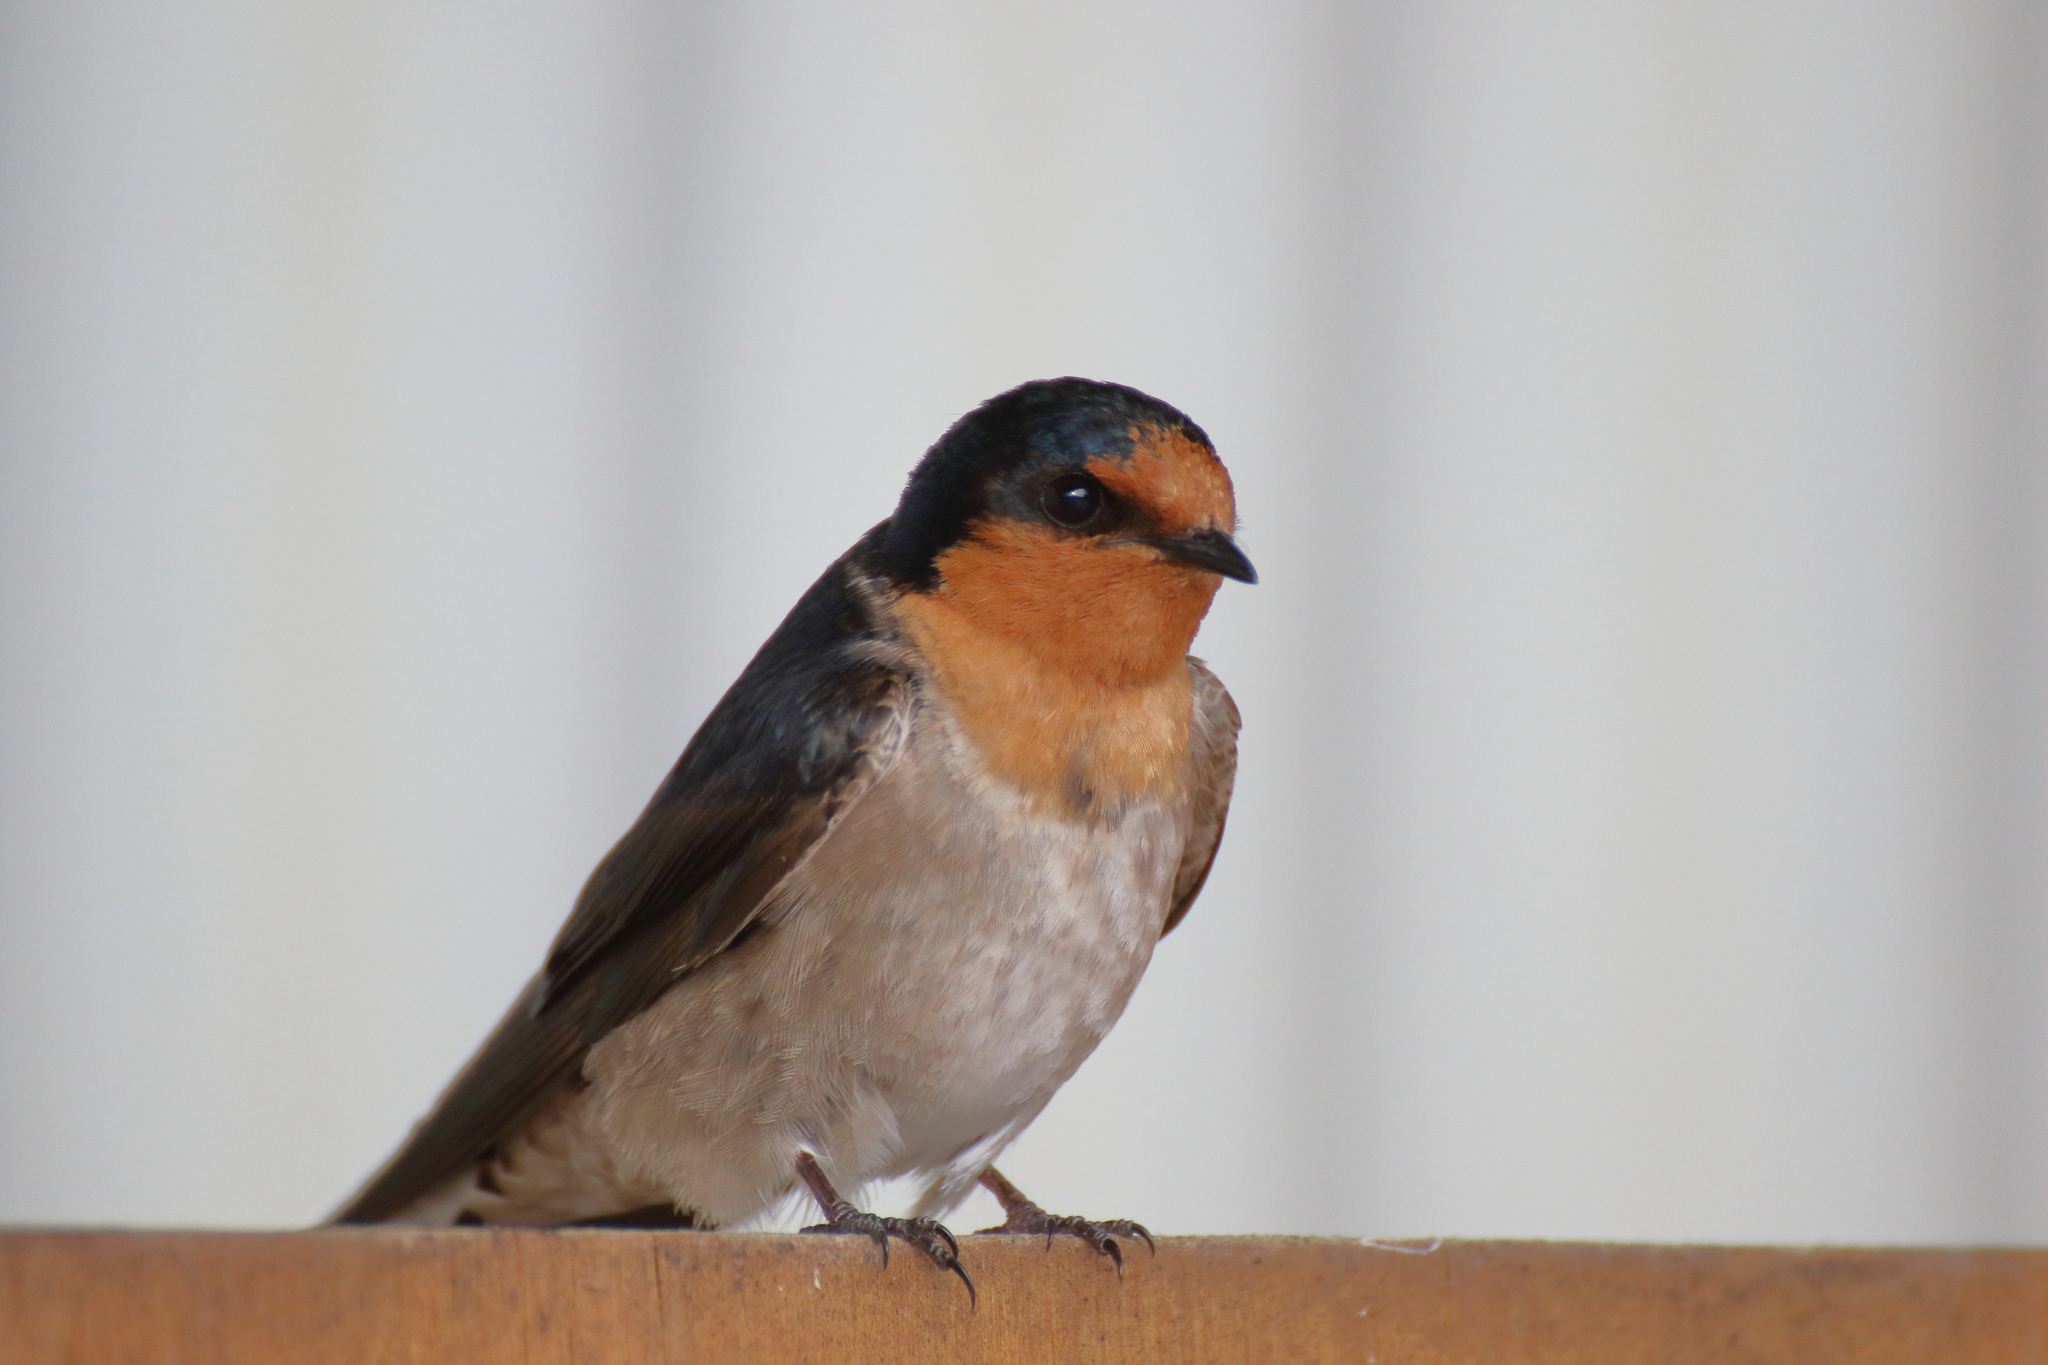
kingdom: Animalia
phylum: Chordata
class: Aves
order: Passeriformes
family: Hirundinidae
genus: Hirundo
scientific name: Hirundo neoxena
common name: Welcome swallow
